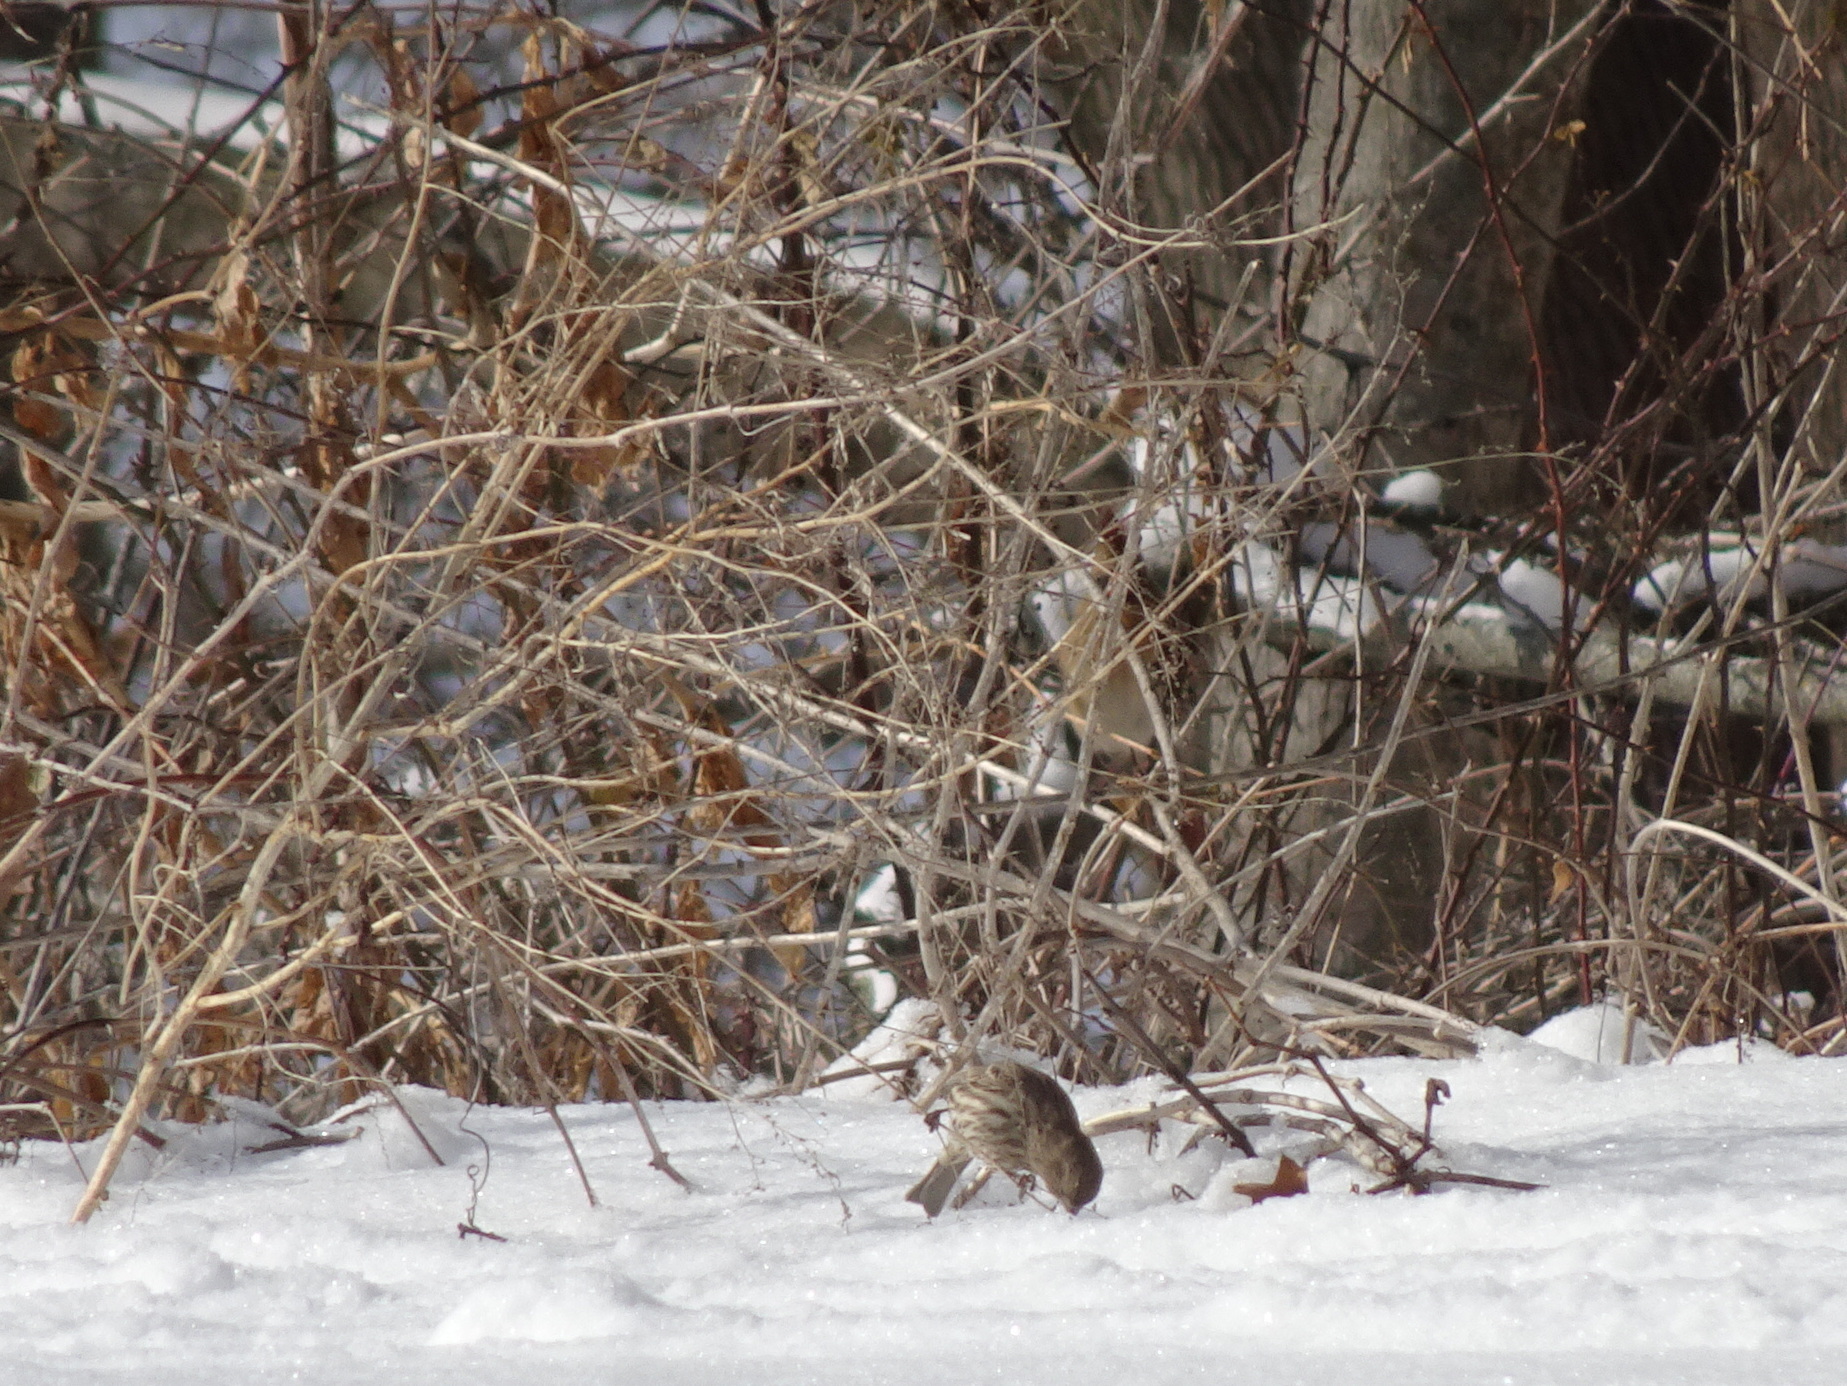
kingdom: Animalia
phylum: Chordata
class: Aves
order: Passeriformes
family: Fringillidae
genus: Haemorhous
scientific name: Haemorhous mexicanus
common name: House finch
